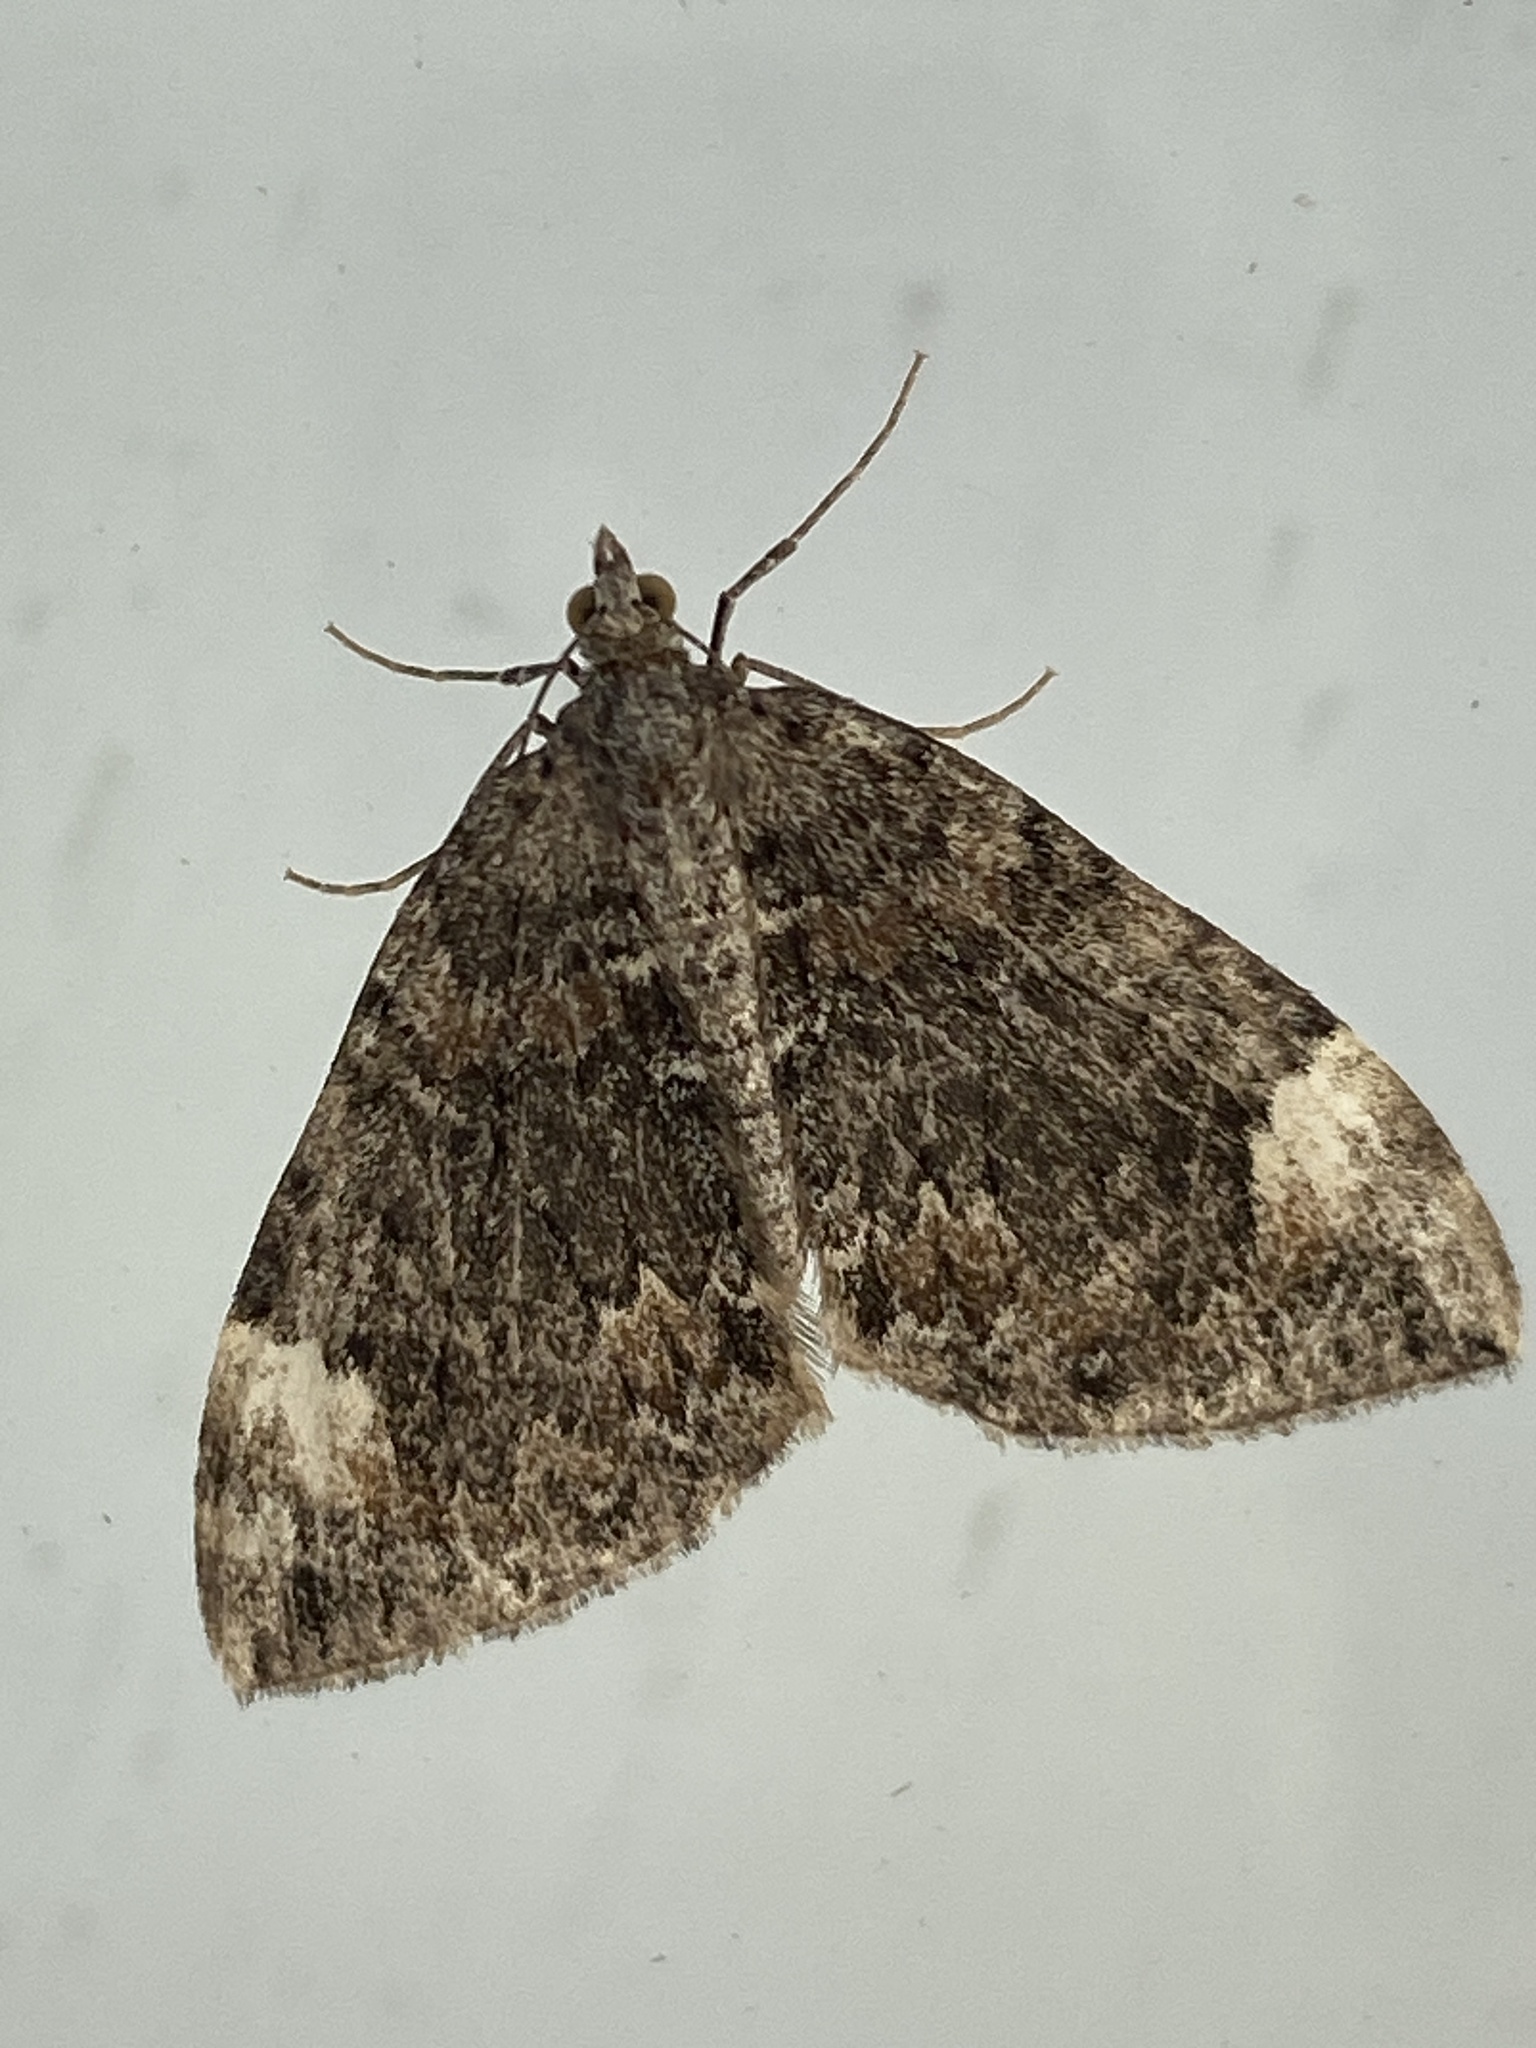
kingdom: Animalia
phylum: Arthropoda
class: Insecta
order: Lepidoptera
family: Geometridae
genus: Dysstroma
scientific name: Dysstroma citrata
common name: Dark marbled carpet
